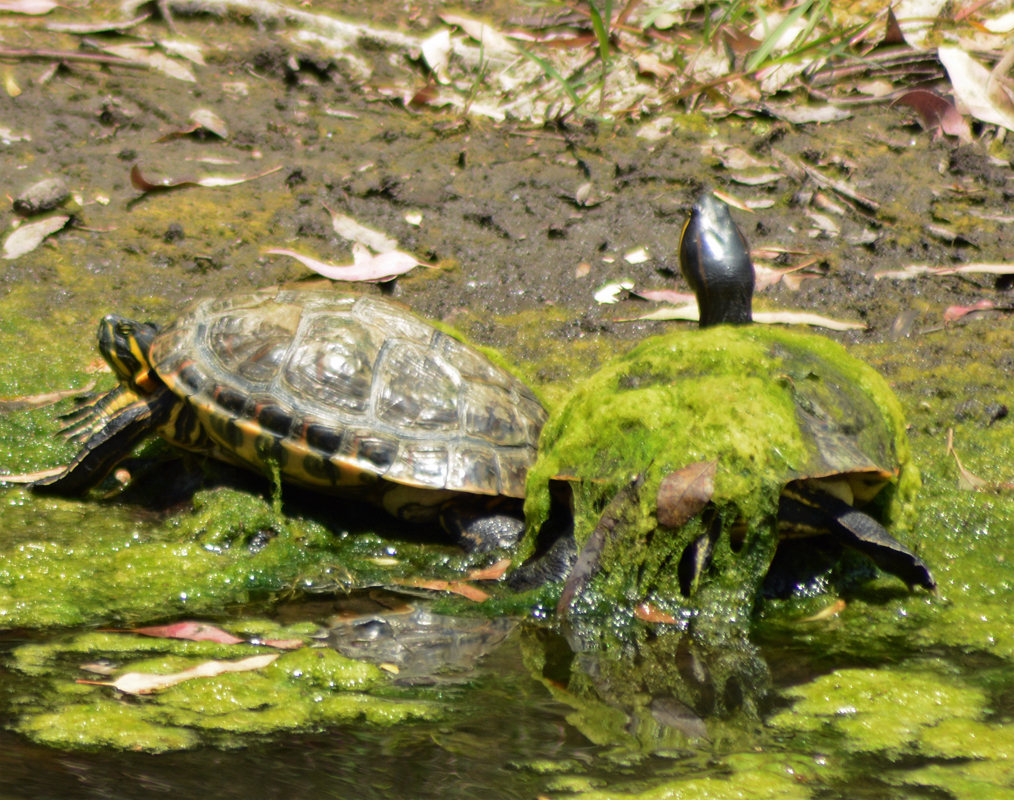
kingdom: Animalia
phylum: Chordata
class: Testudines
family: Emydidae
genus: Trachemys
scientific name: Trachemys venusta
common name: Mesoamerican slider
